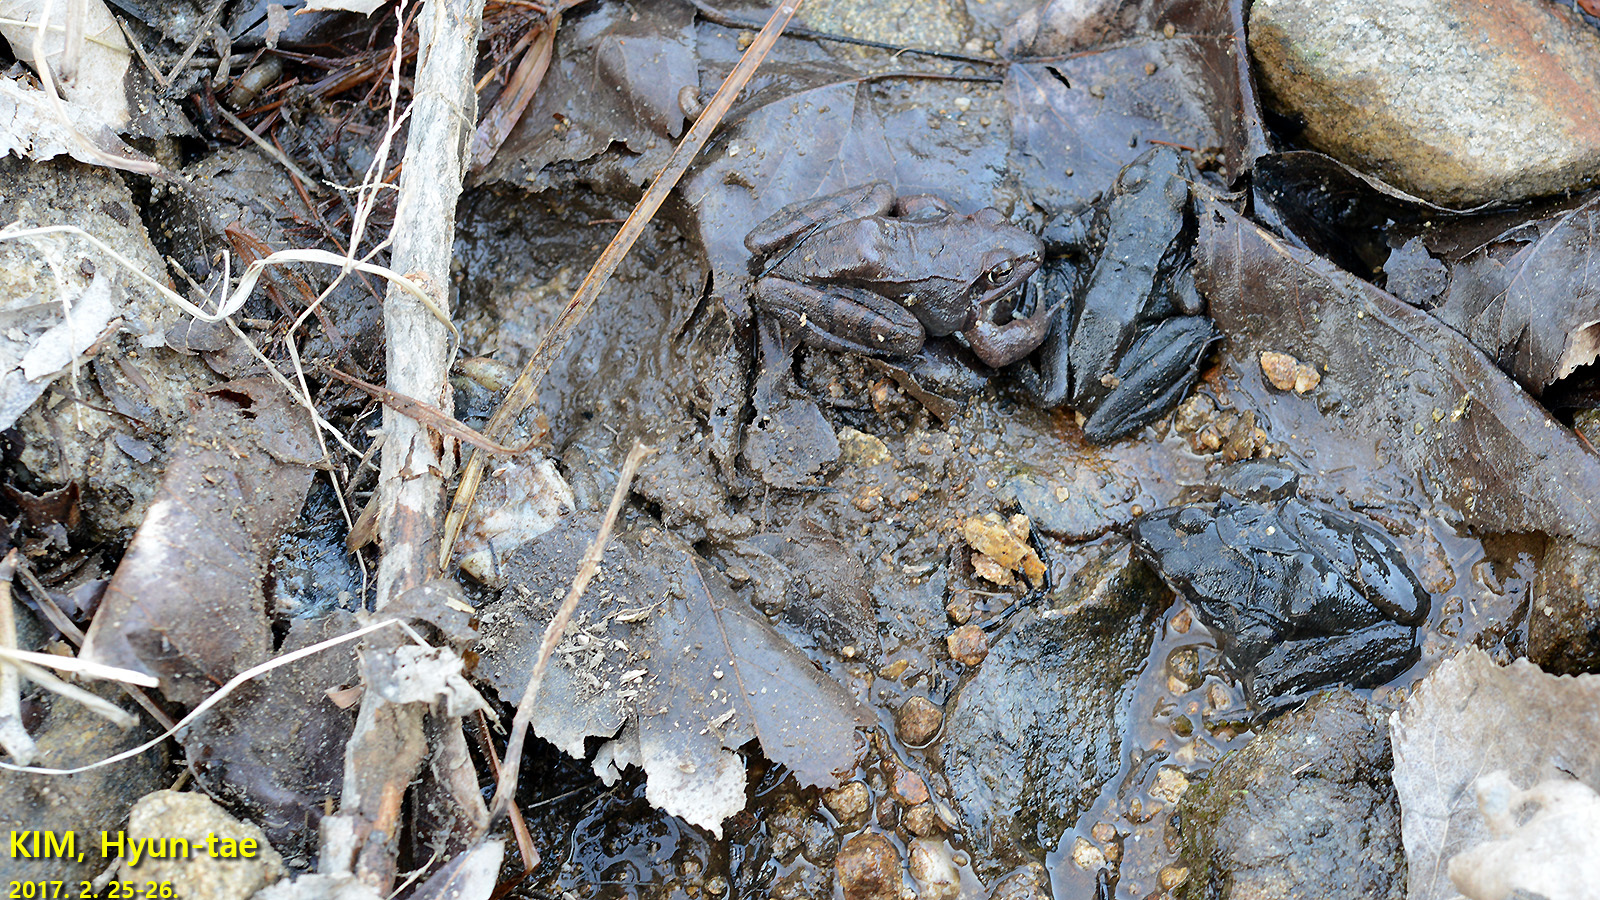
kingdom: Animalia
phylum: Chordata
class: Amphibia
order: Anura
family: Ranidae
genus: Rana
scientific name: Rana uenoi
